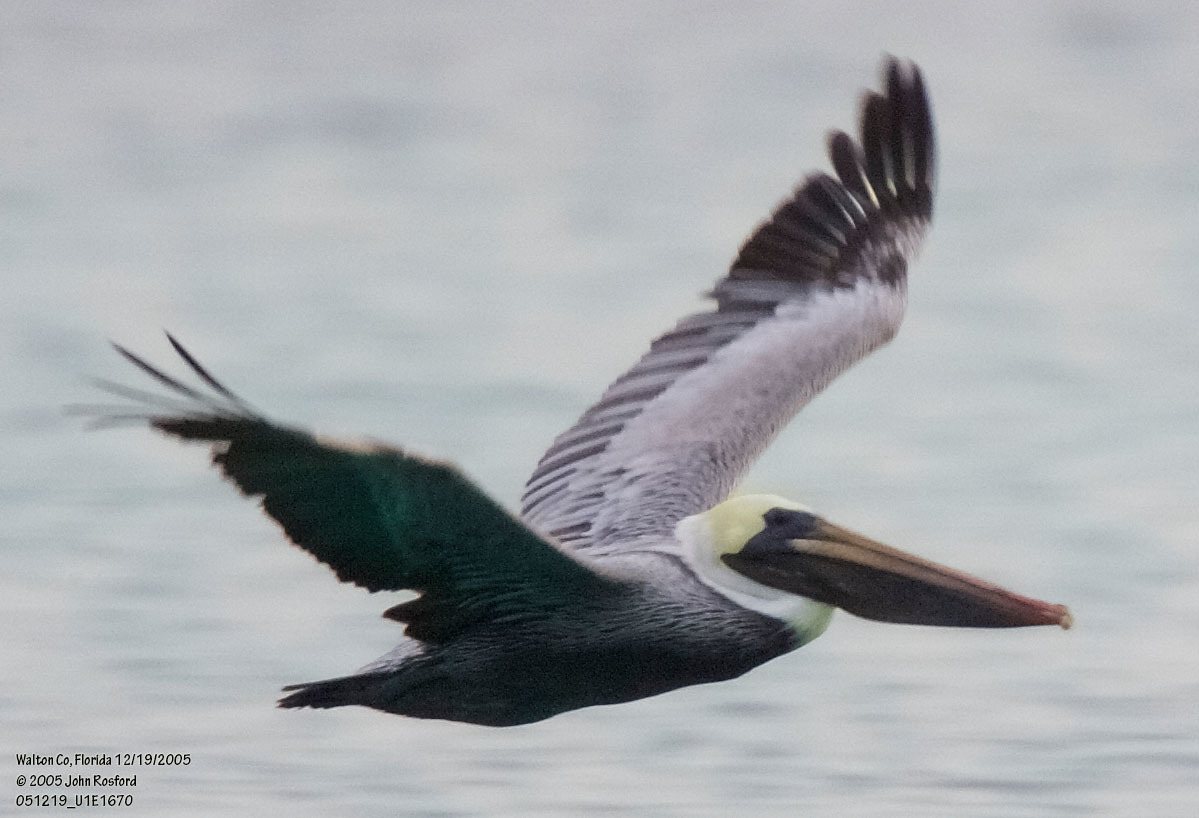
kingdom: Animalia
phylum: Chordata
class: Aves
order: Pelecaniformes
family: Pelecanidae
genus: Pelecanus
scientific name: Pelecanus occidentalis
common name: Brown pelican
